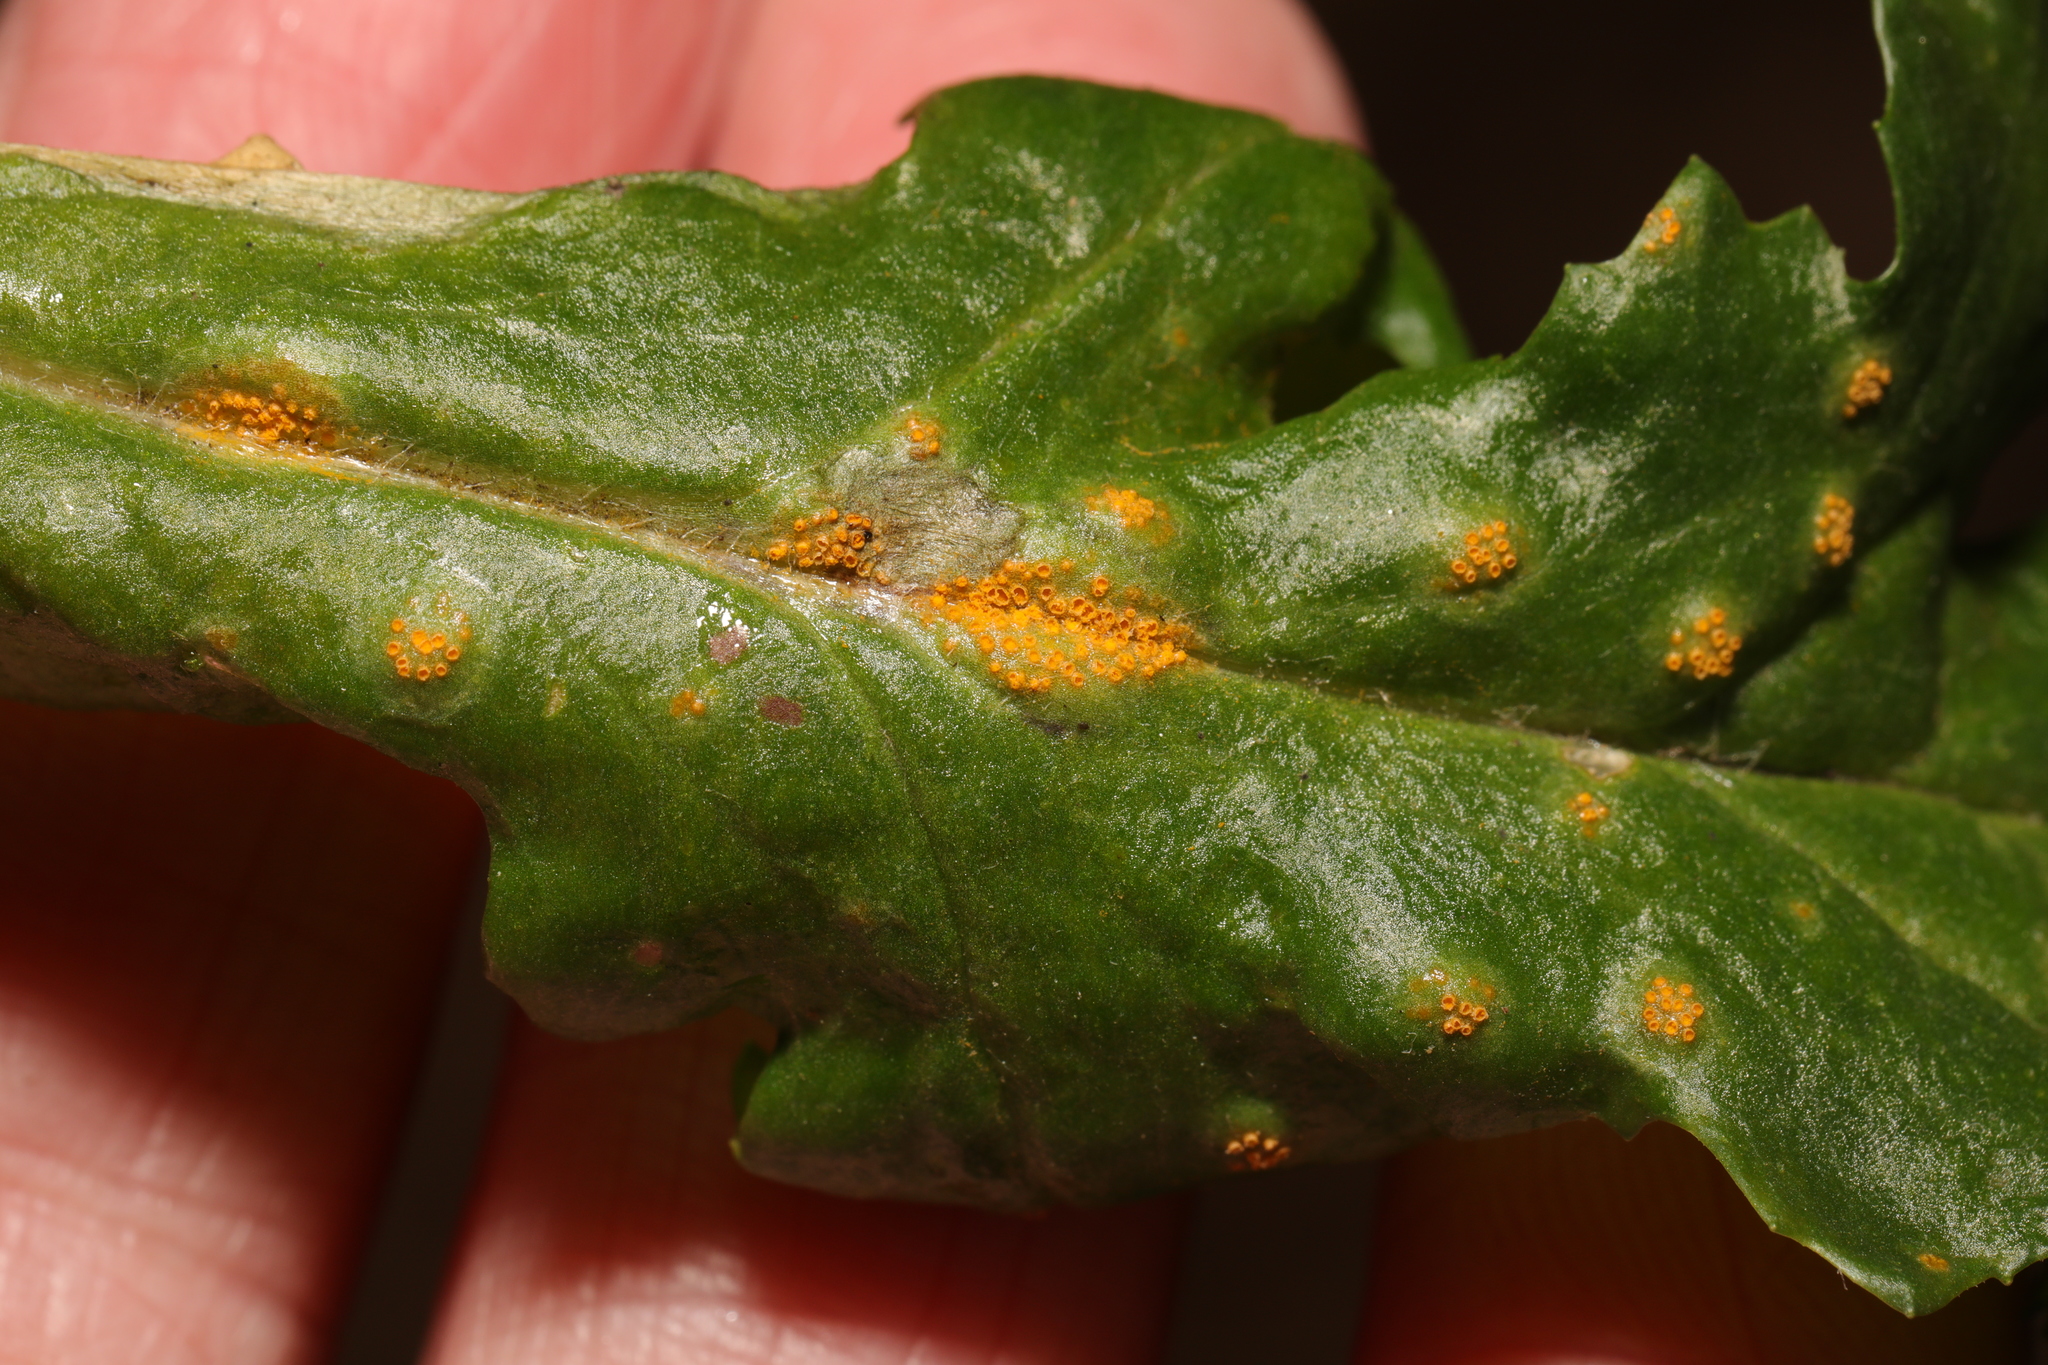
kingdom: Fungi
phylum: Basidiomycota
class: Pucciniomycetes
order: Pucciniales
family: Pucciniaceae
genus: Puccinia
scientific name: Puccinia lagenophorae
